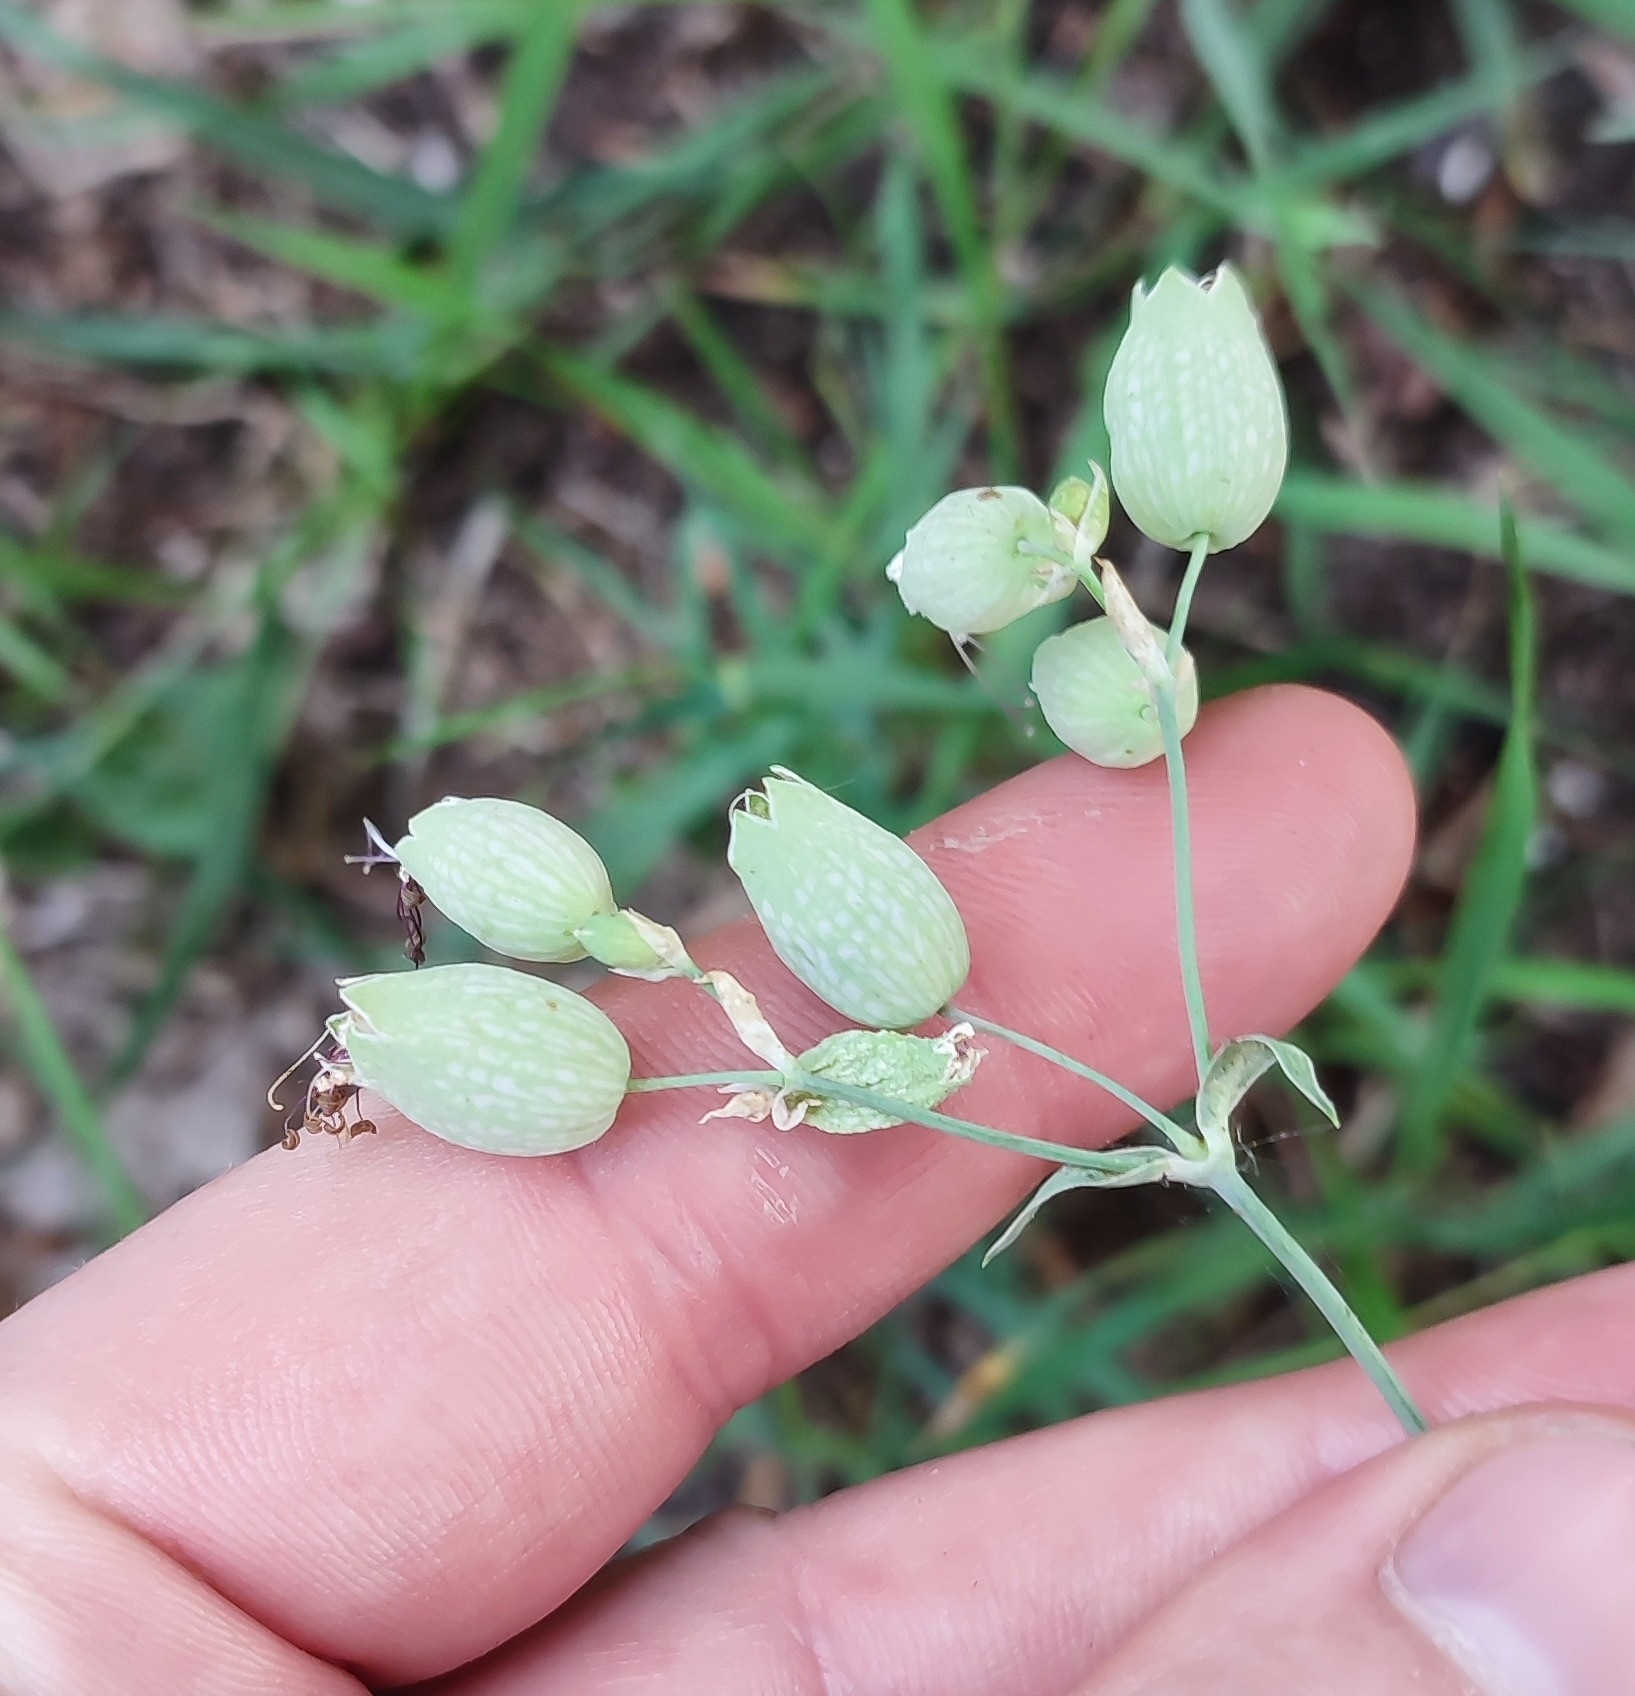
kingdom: Plantae
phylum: Tracheophyta
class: Magnoliopsida
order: Caryophyllales
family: Caryophyllaceae
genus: Silene
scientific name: Silene vulgaris
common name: Bladder campion
